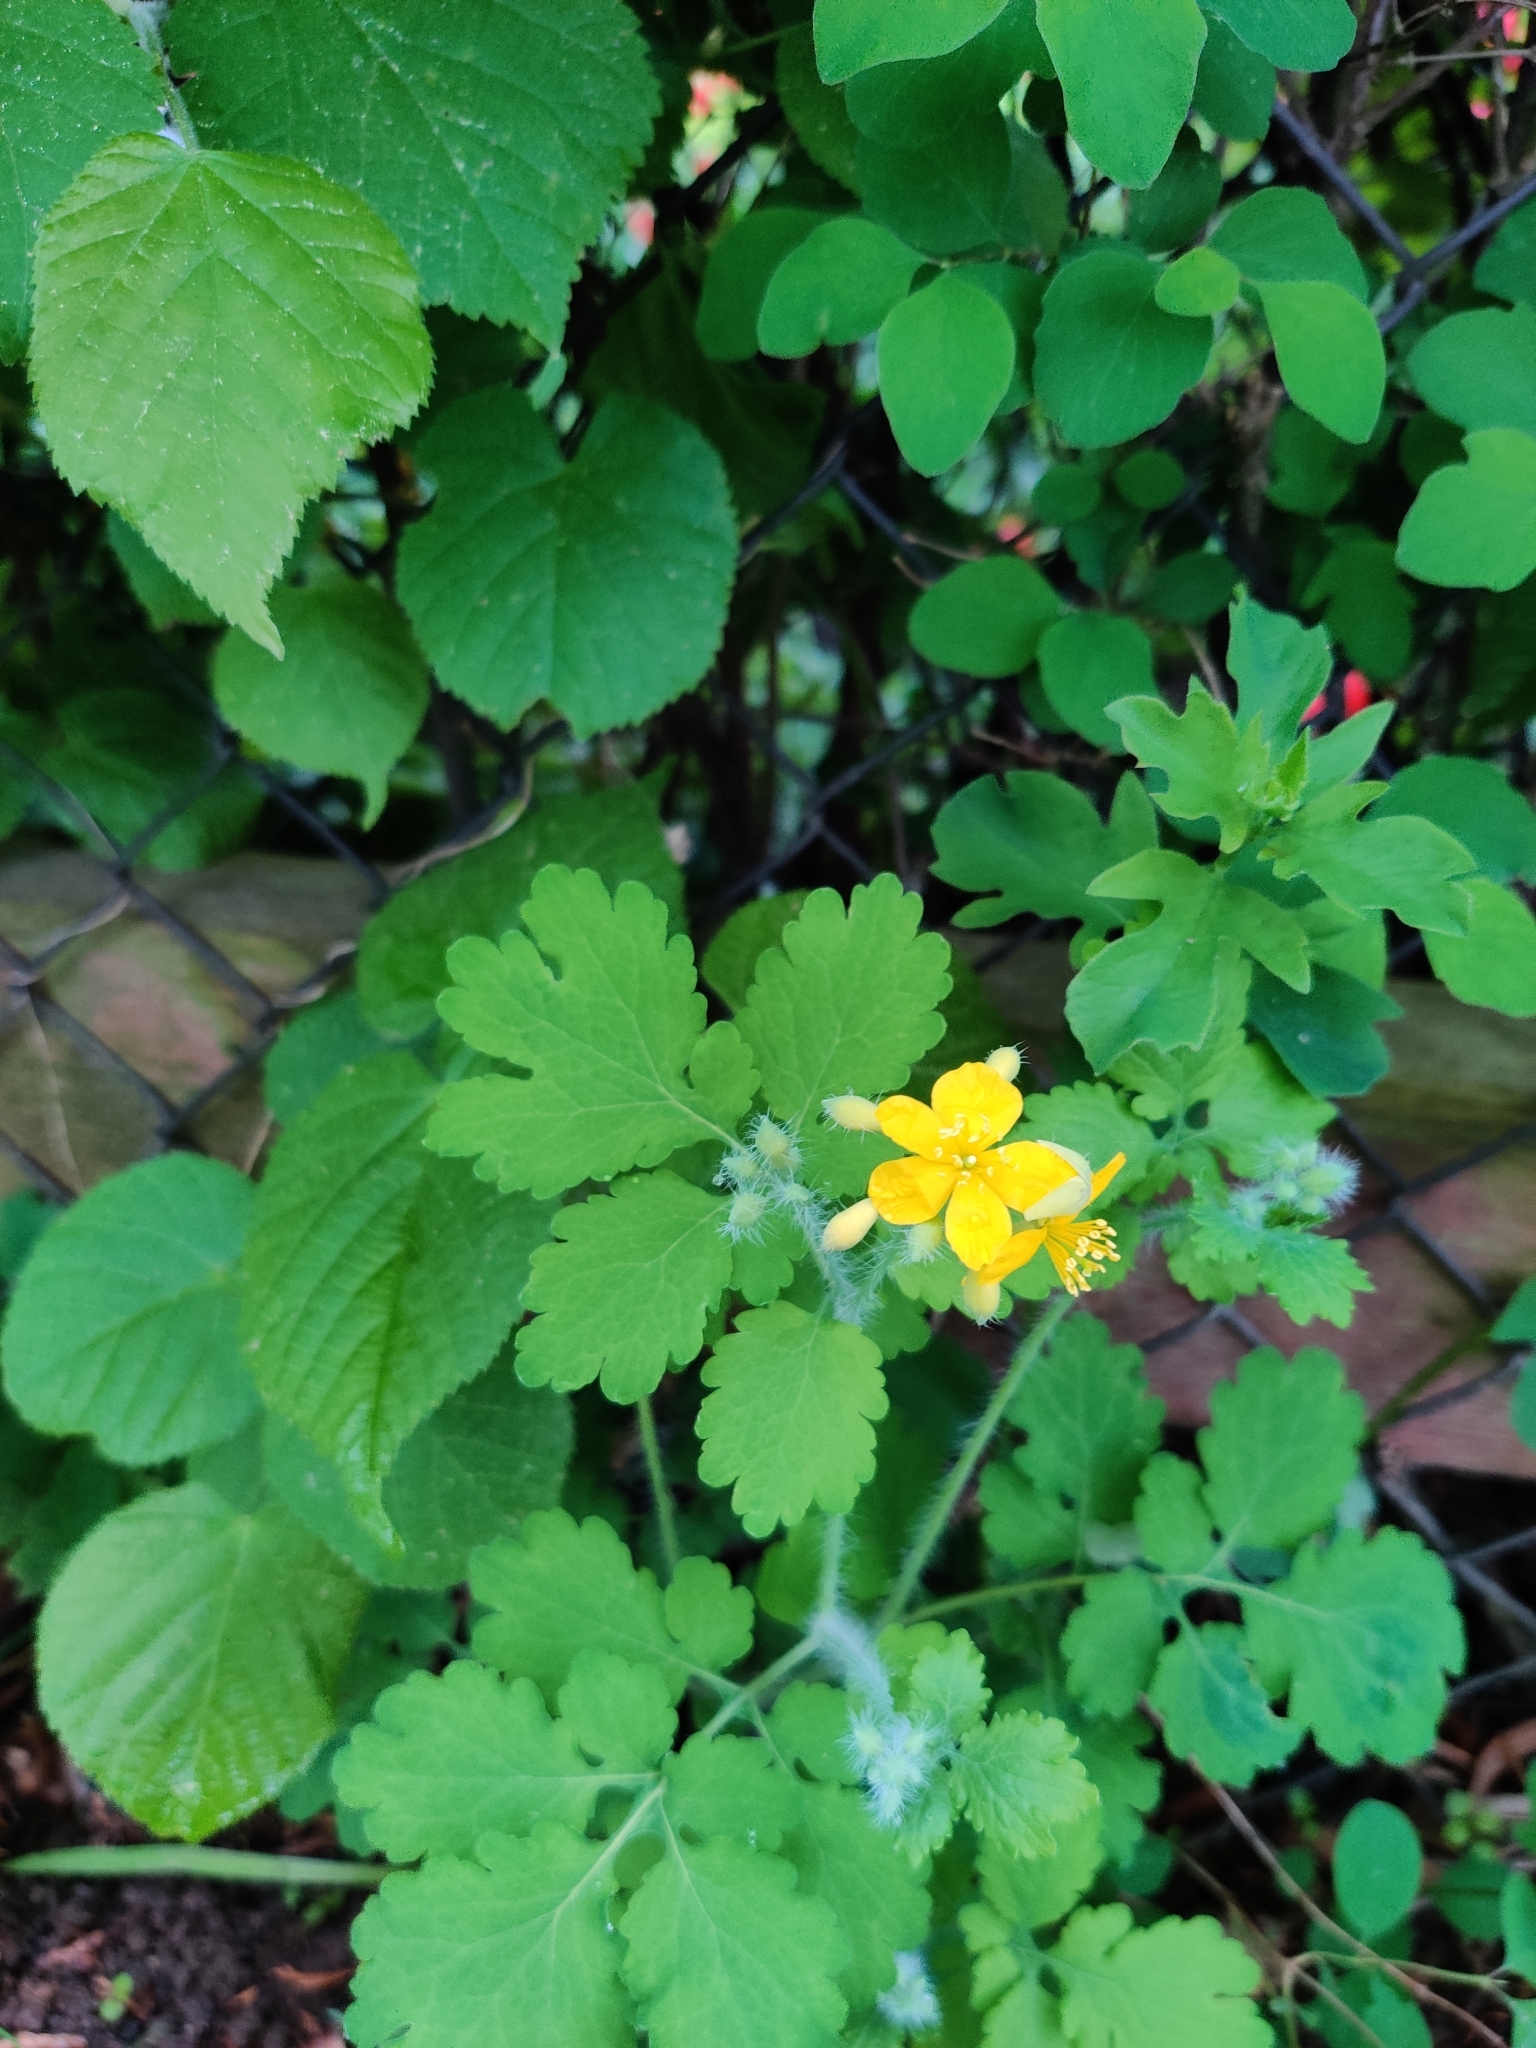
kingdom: Plantae
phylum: Tracheophyta
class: Magnoliopsida
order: Ranunculales
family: Papaveraceae
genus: Chelidonium
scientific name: Chelidonium majus
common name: Greater celandine
